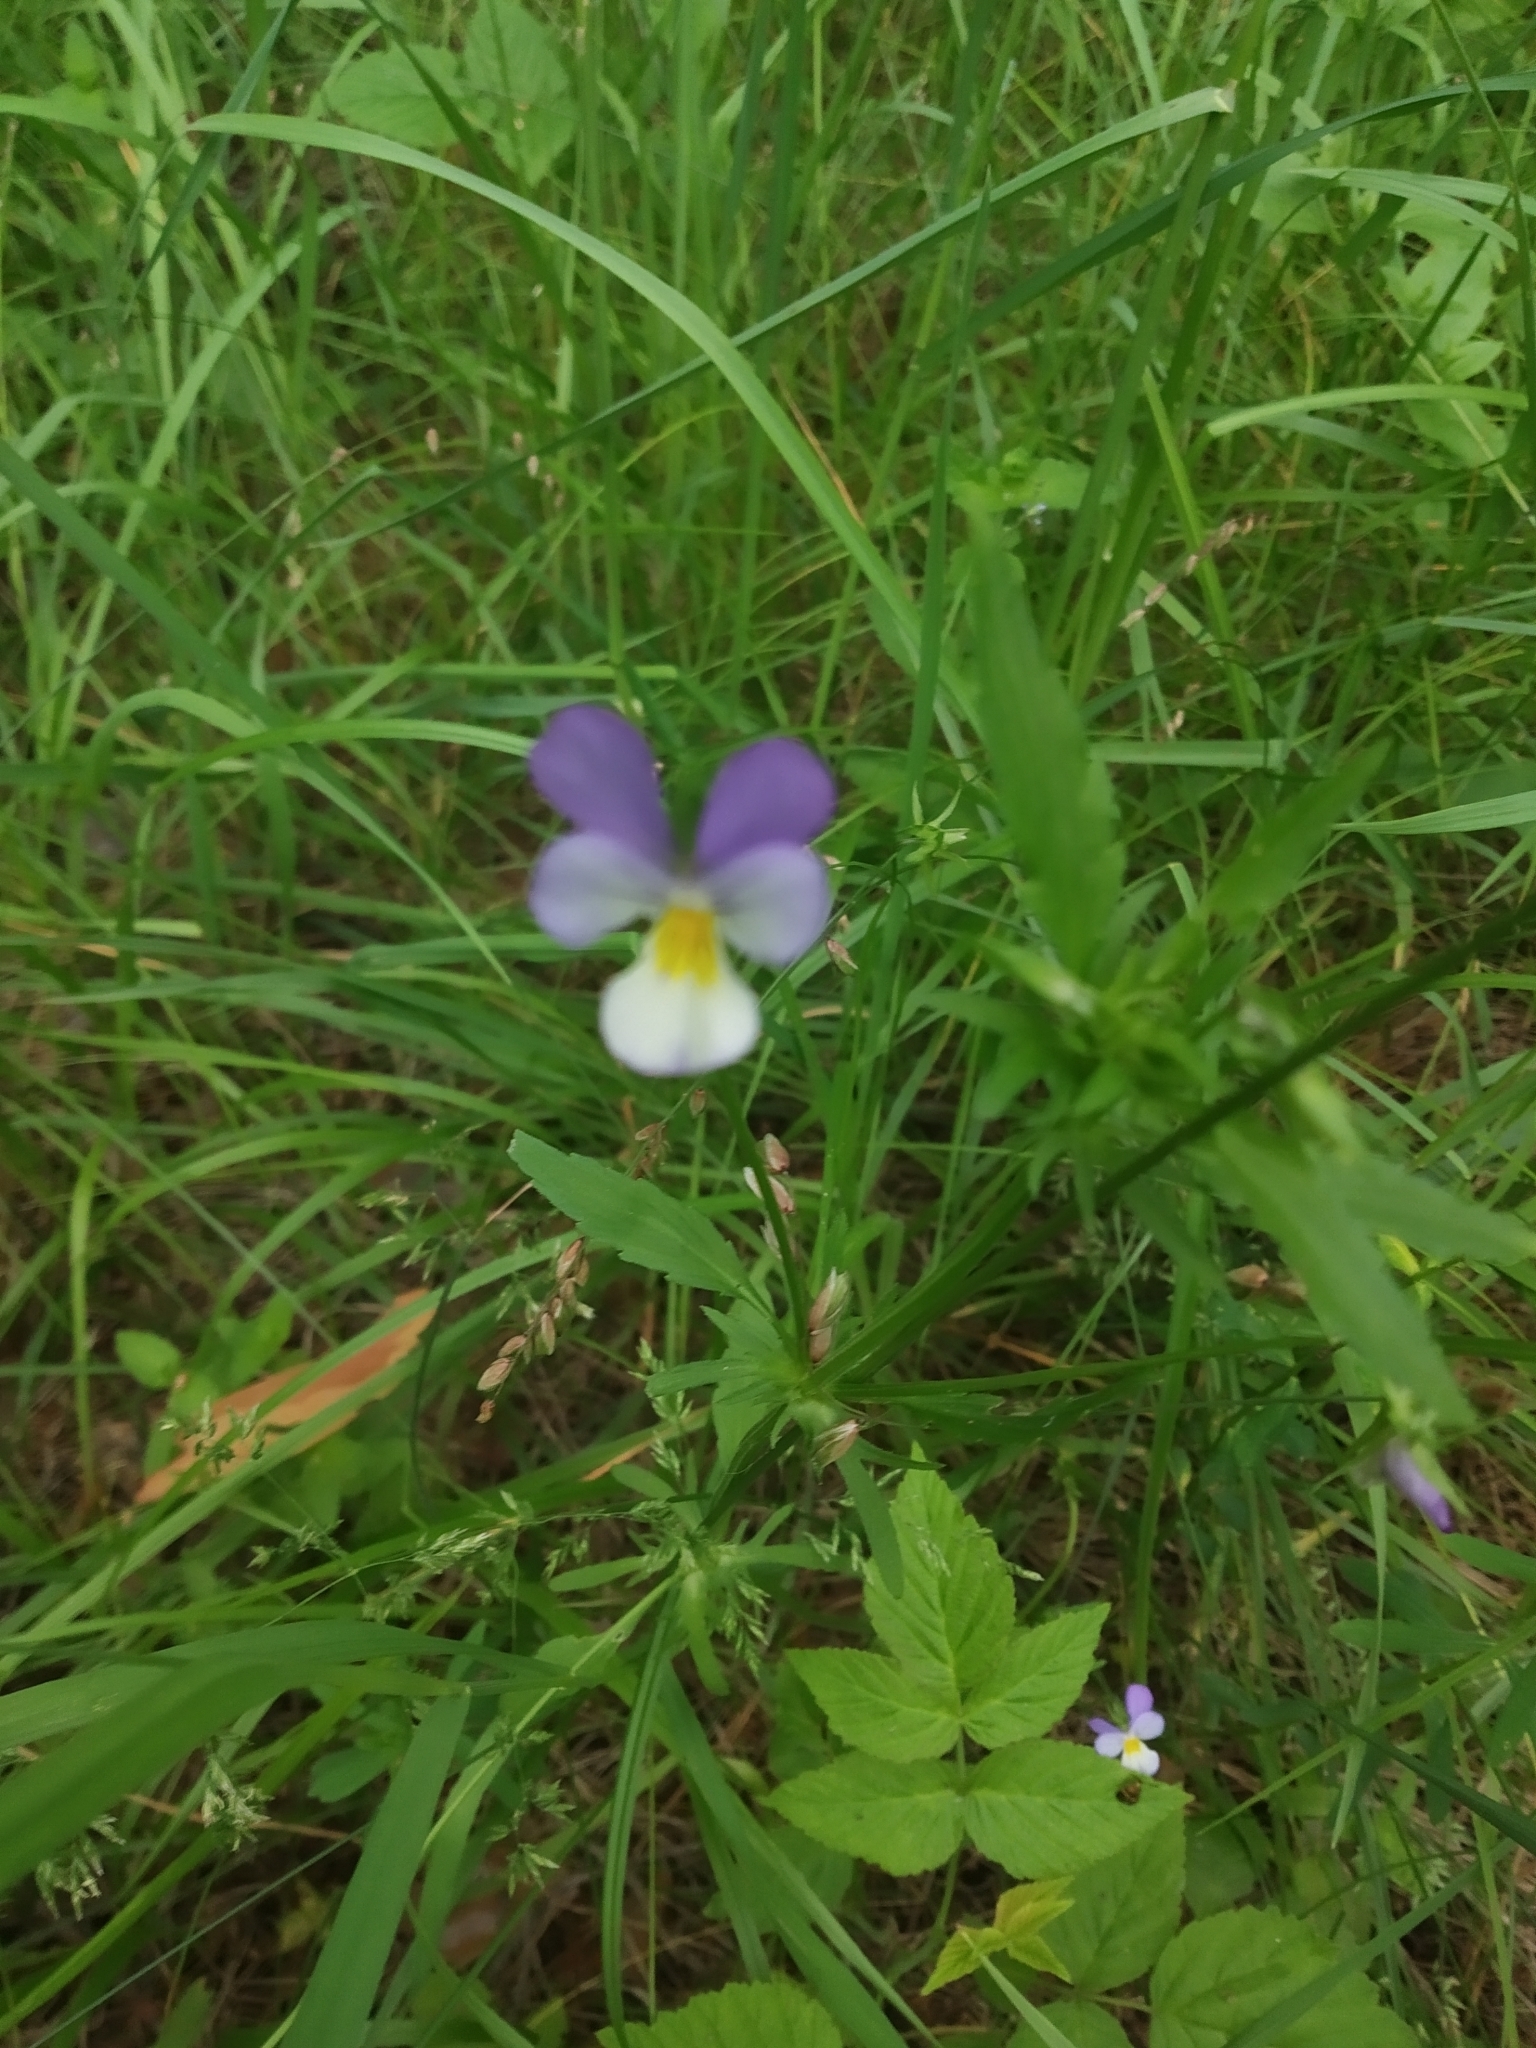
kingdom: Plantae
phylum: Tracheophyta
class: Magnoliopsida
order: Malpighiales
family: Violaceae
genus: Viola
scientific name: Viola tricolor
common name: Pansy
